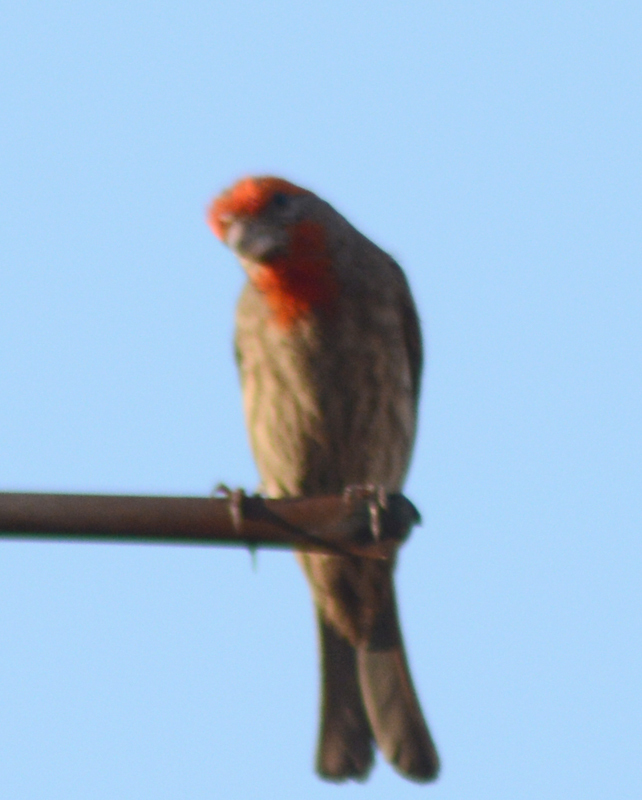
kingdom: Animalia
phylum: Chordata
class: Aves
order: Passeriformes
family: Fringillidae
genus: Haemorhous
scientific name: Haemorhous mexicanus
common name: House finch
